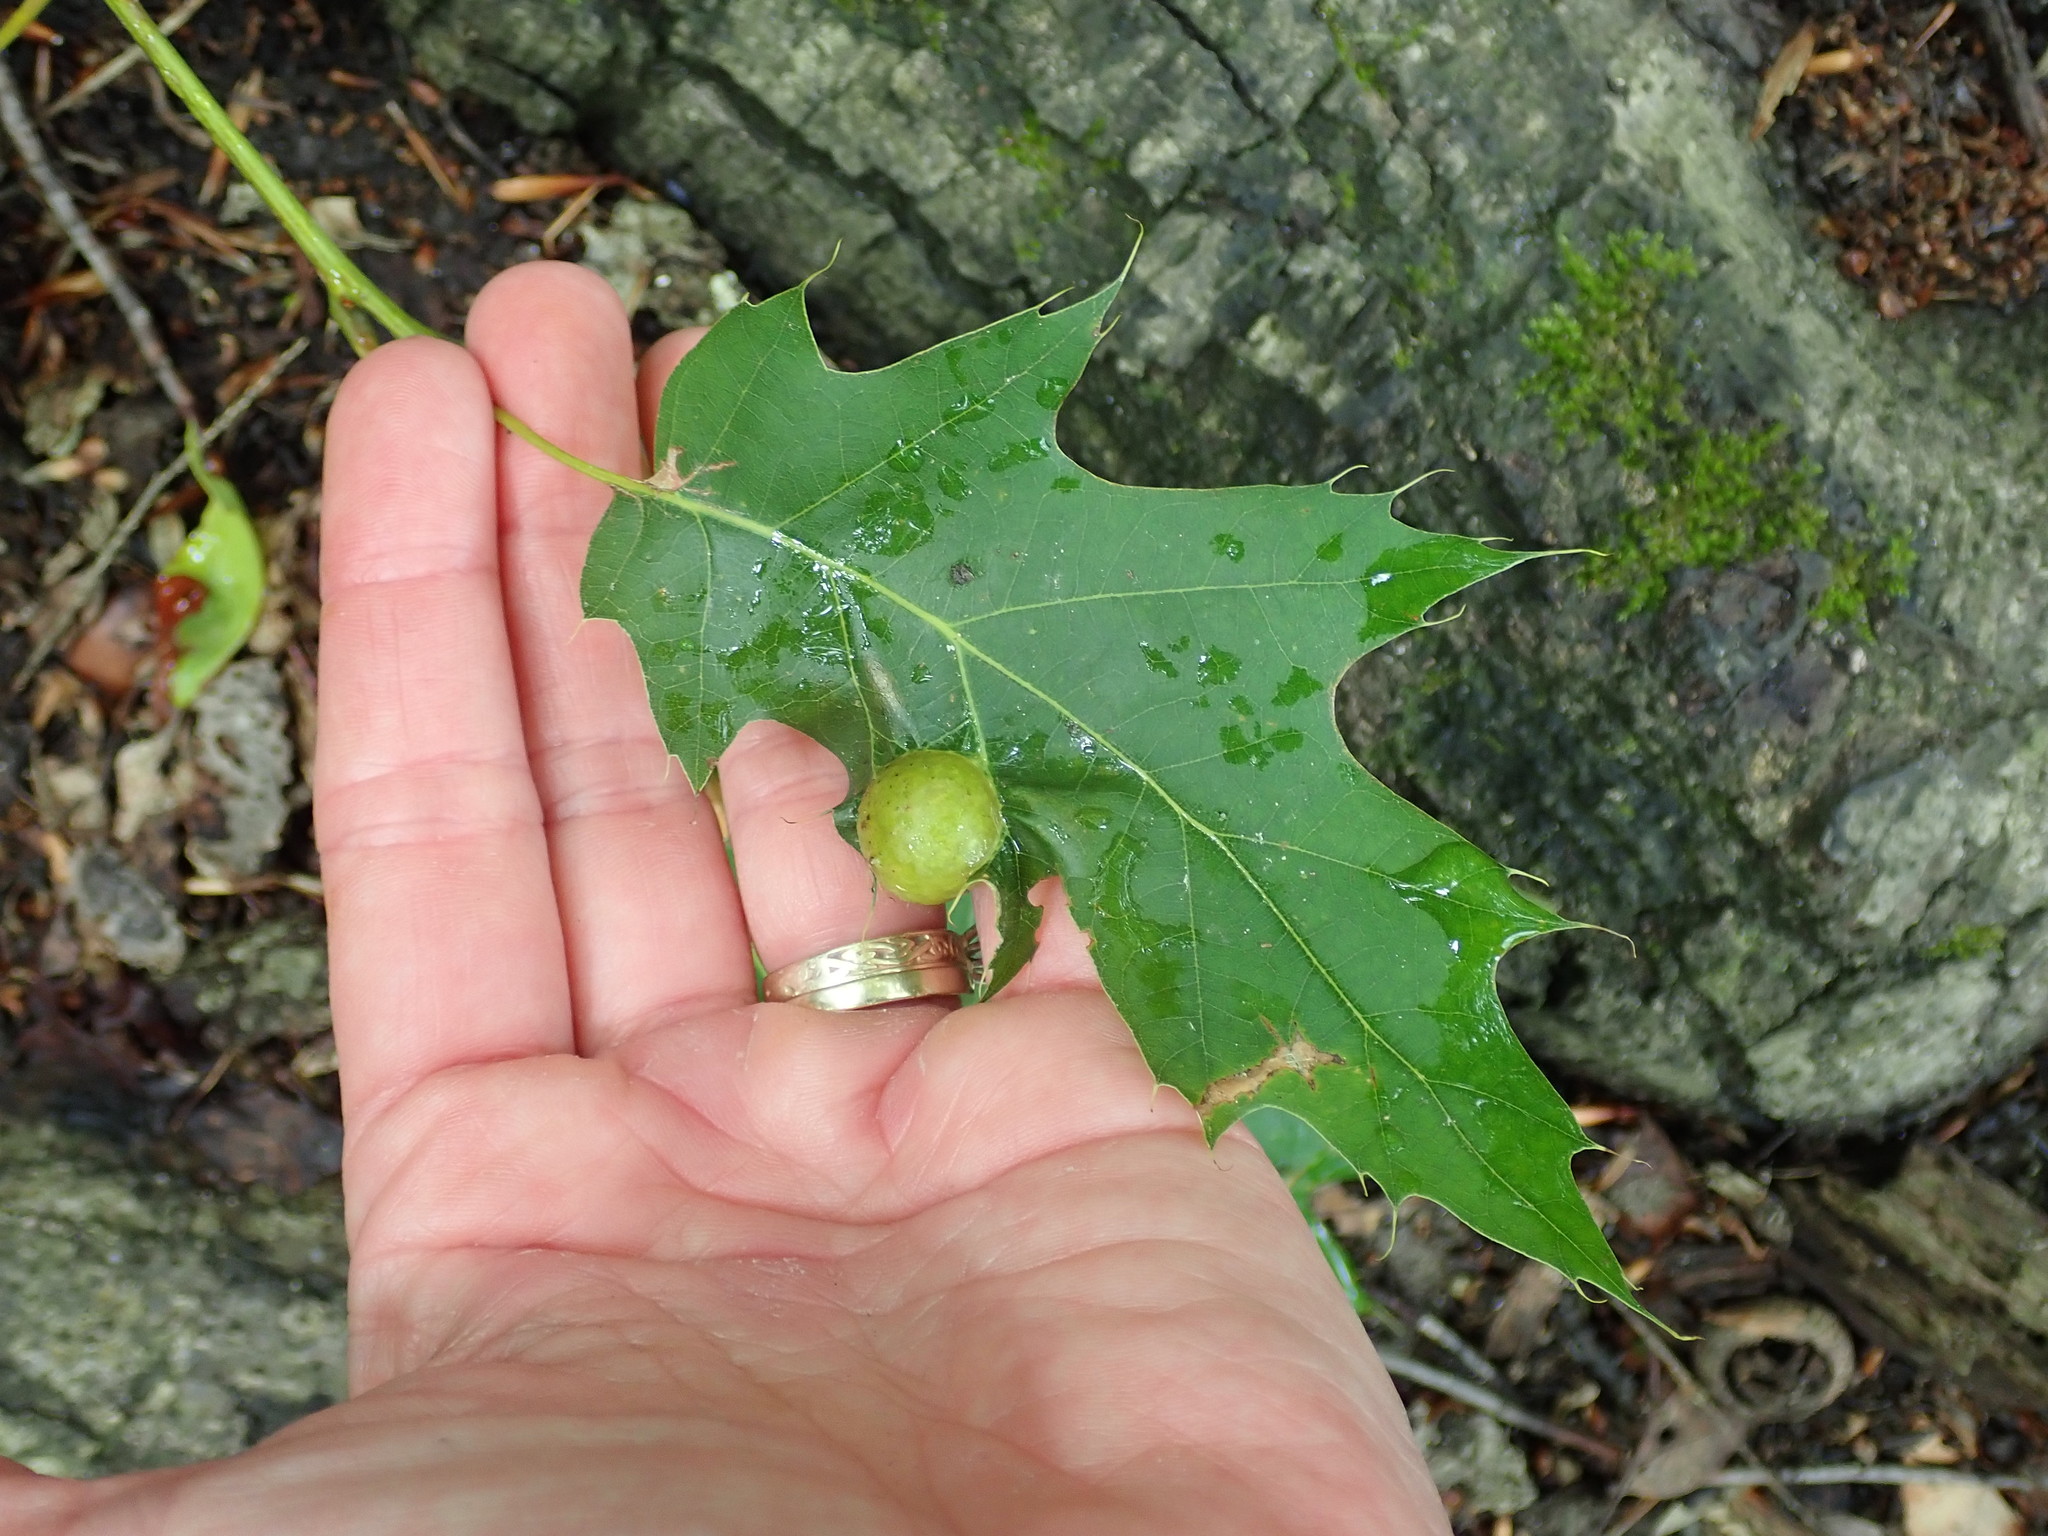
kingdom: Animalia
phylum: Arthropoda
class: Insecta
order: Hymenoptera
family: Cynipidae
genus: Amphibolips
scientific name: Amphibolips
